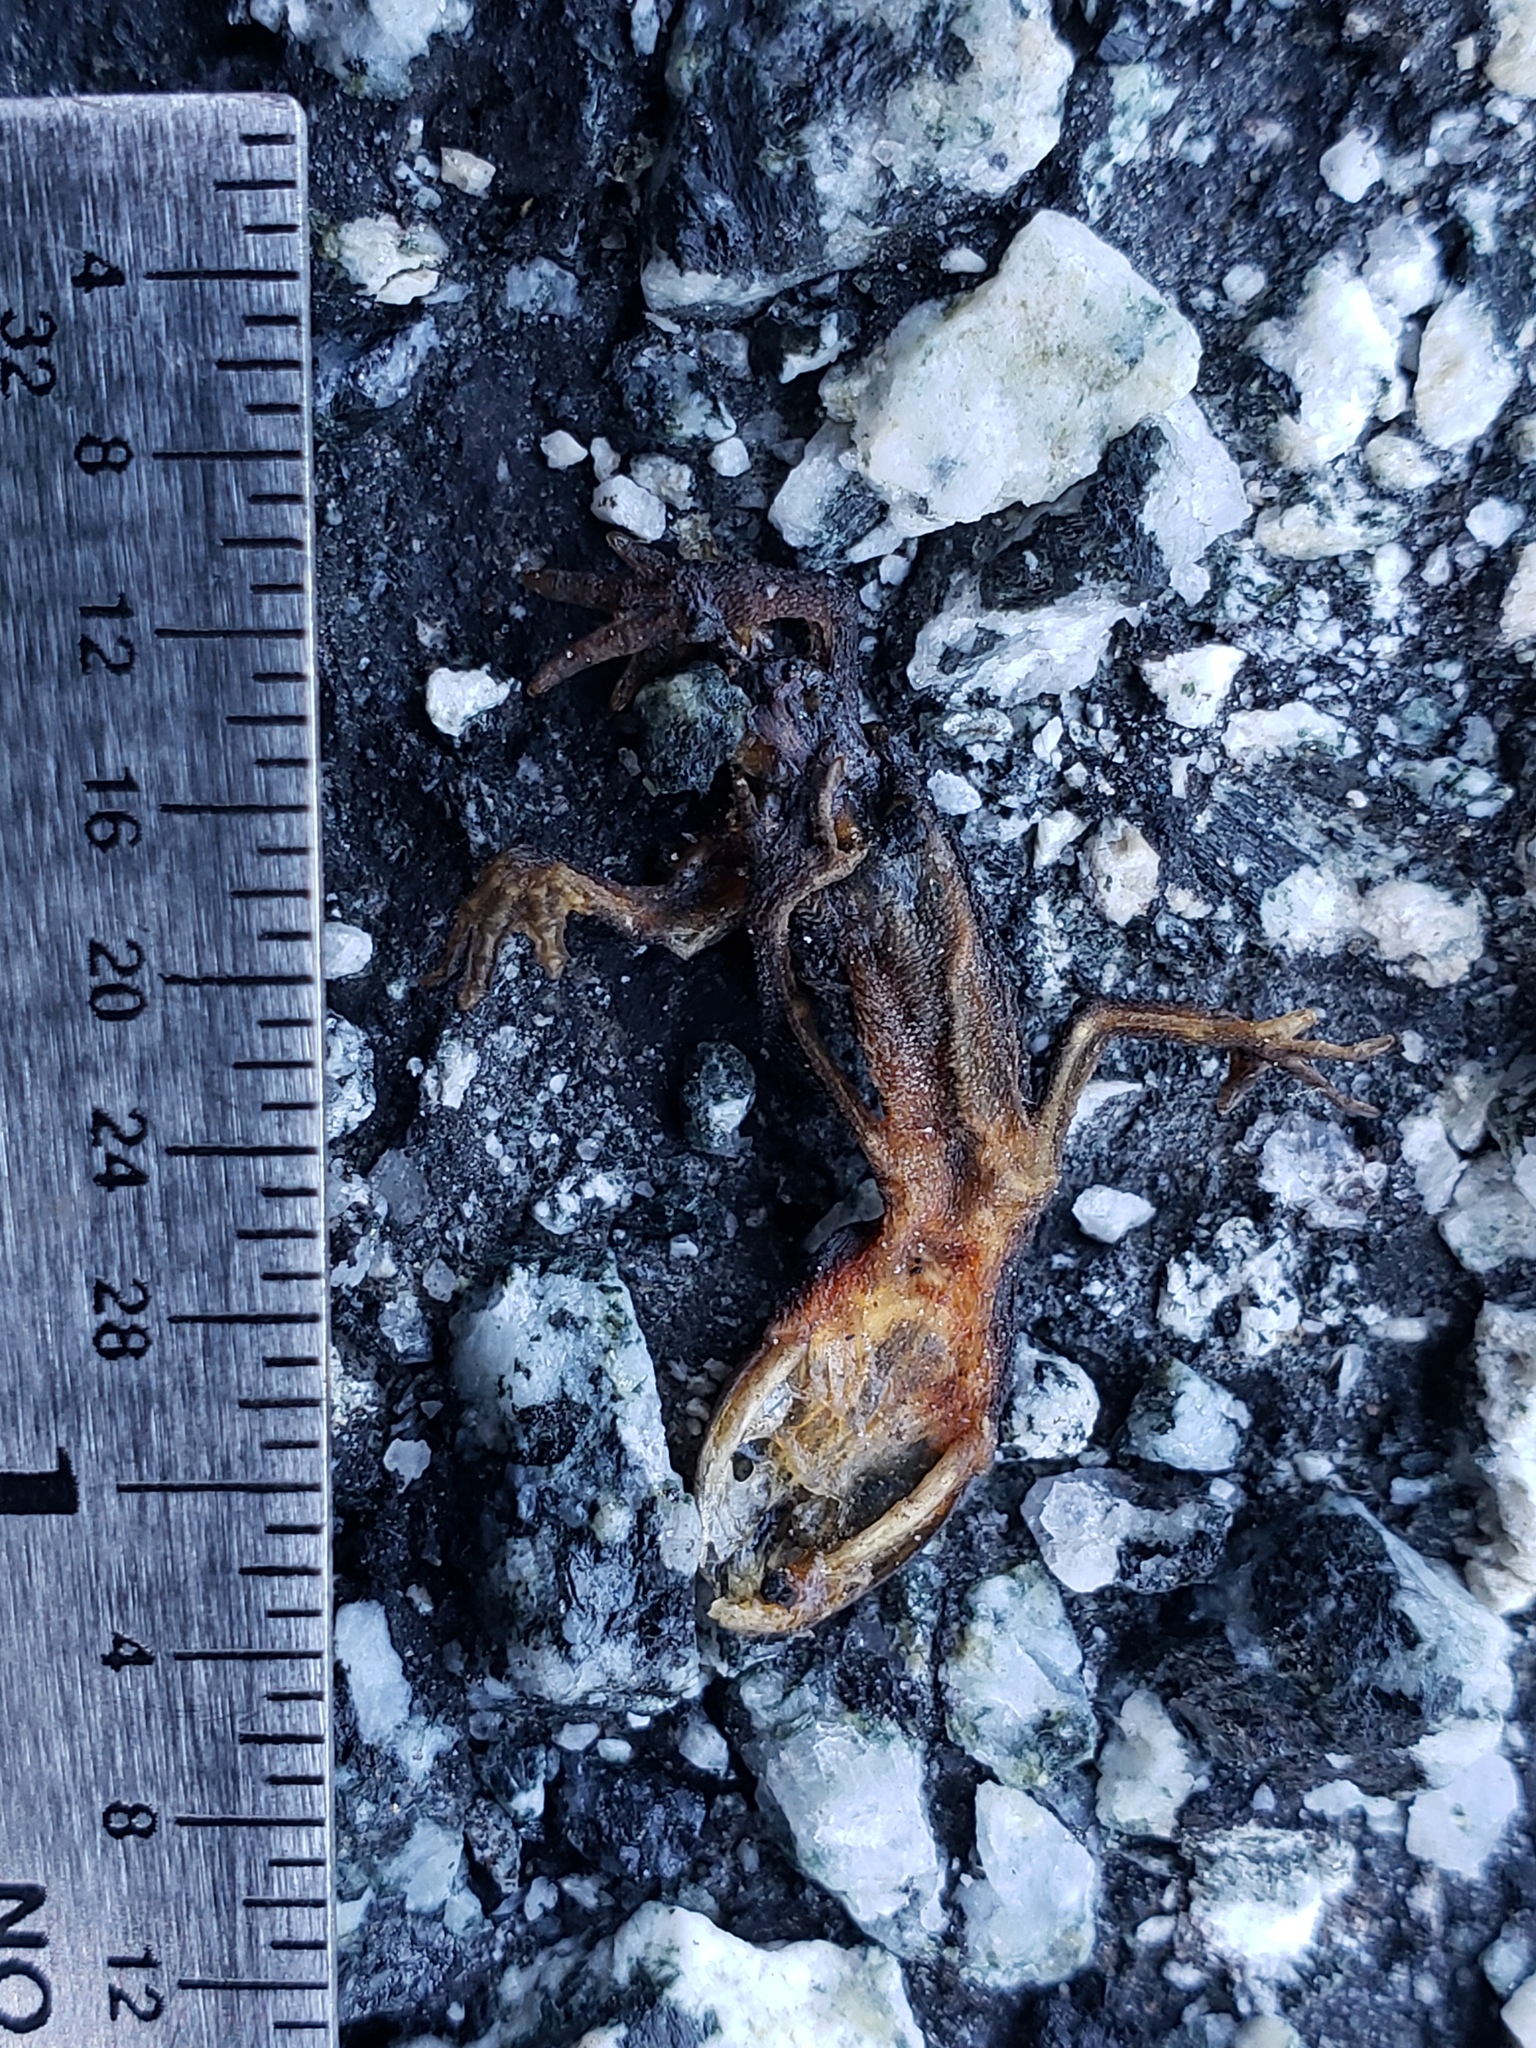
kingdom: Animalia
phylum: Chordata
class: Amphibia
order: Caudata
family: Salamandridae
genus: Taricha
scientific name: Taricha
